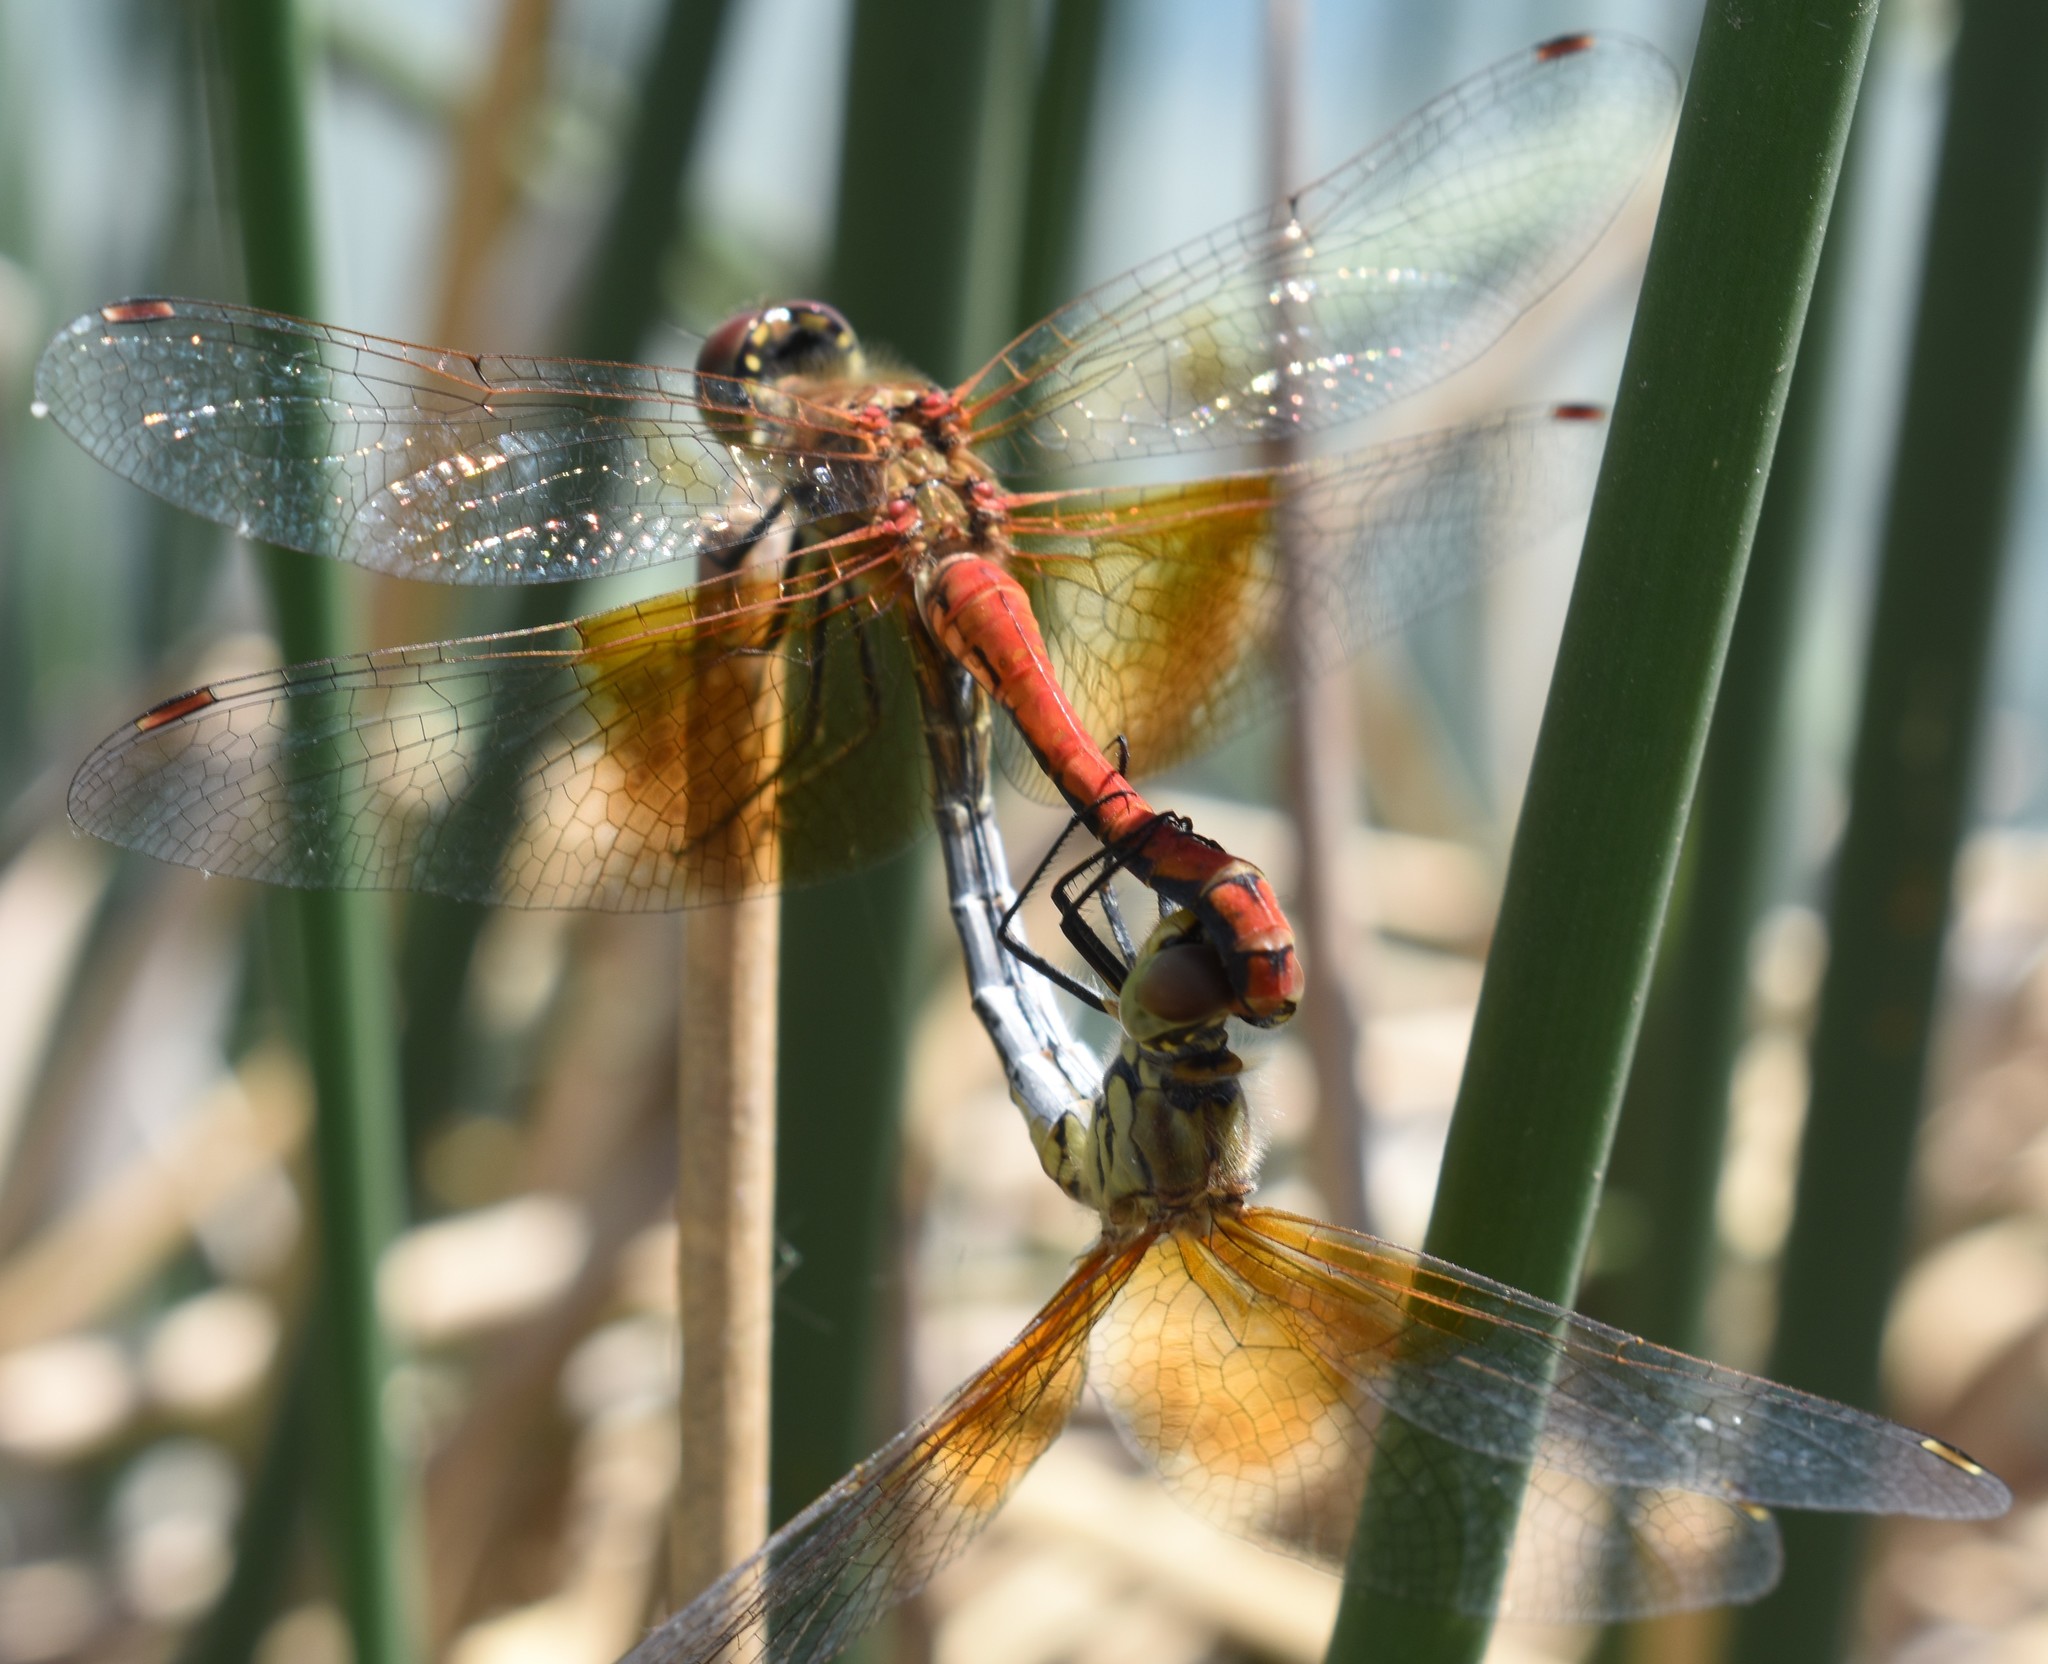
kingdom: Animalia
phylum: Arthropoda
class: Insecta
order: Odonata
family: Libellulidae
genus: Sympetrum
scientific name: Sympetrum semicinctum
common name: Band-winged meadowhawk
